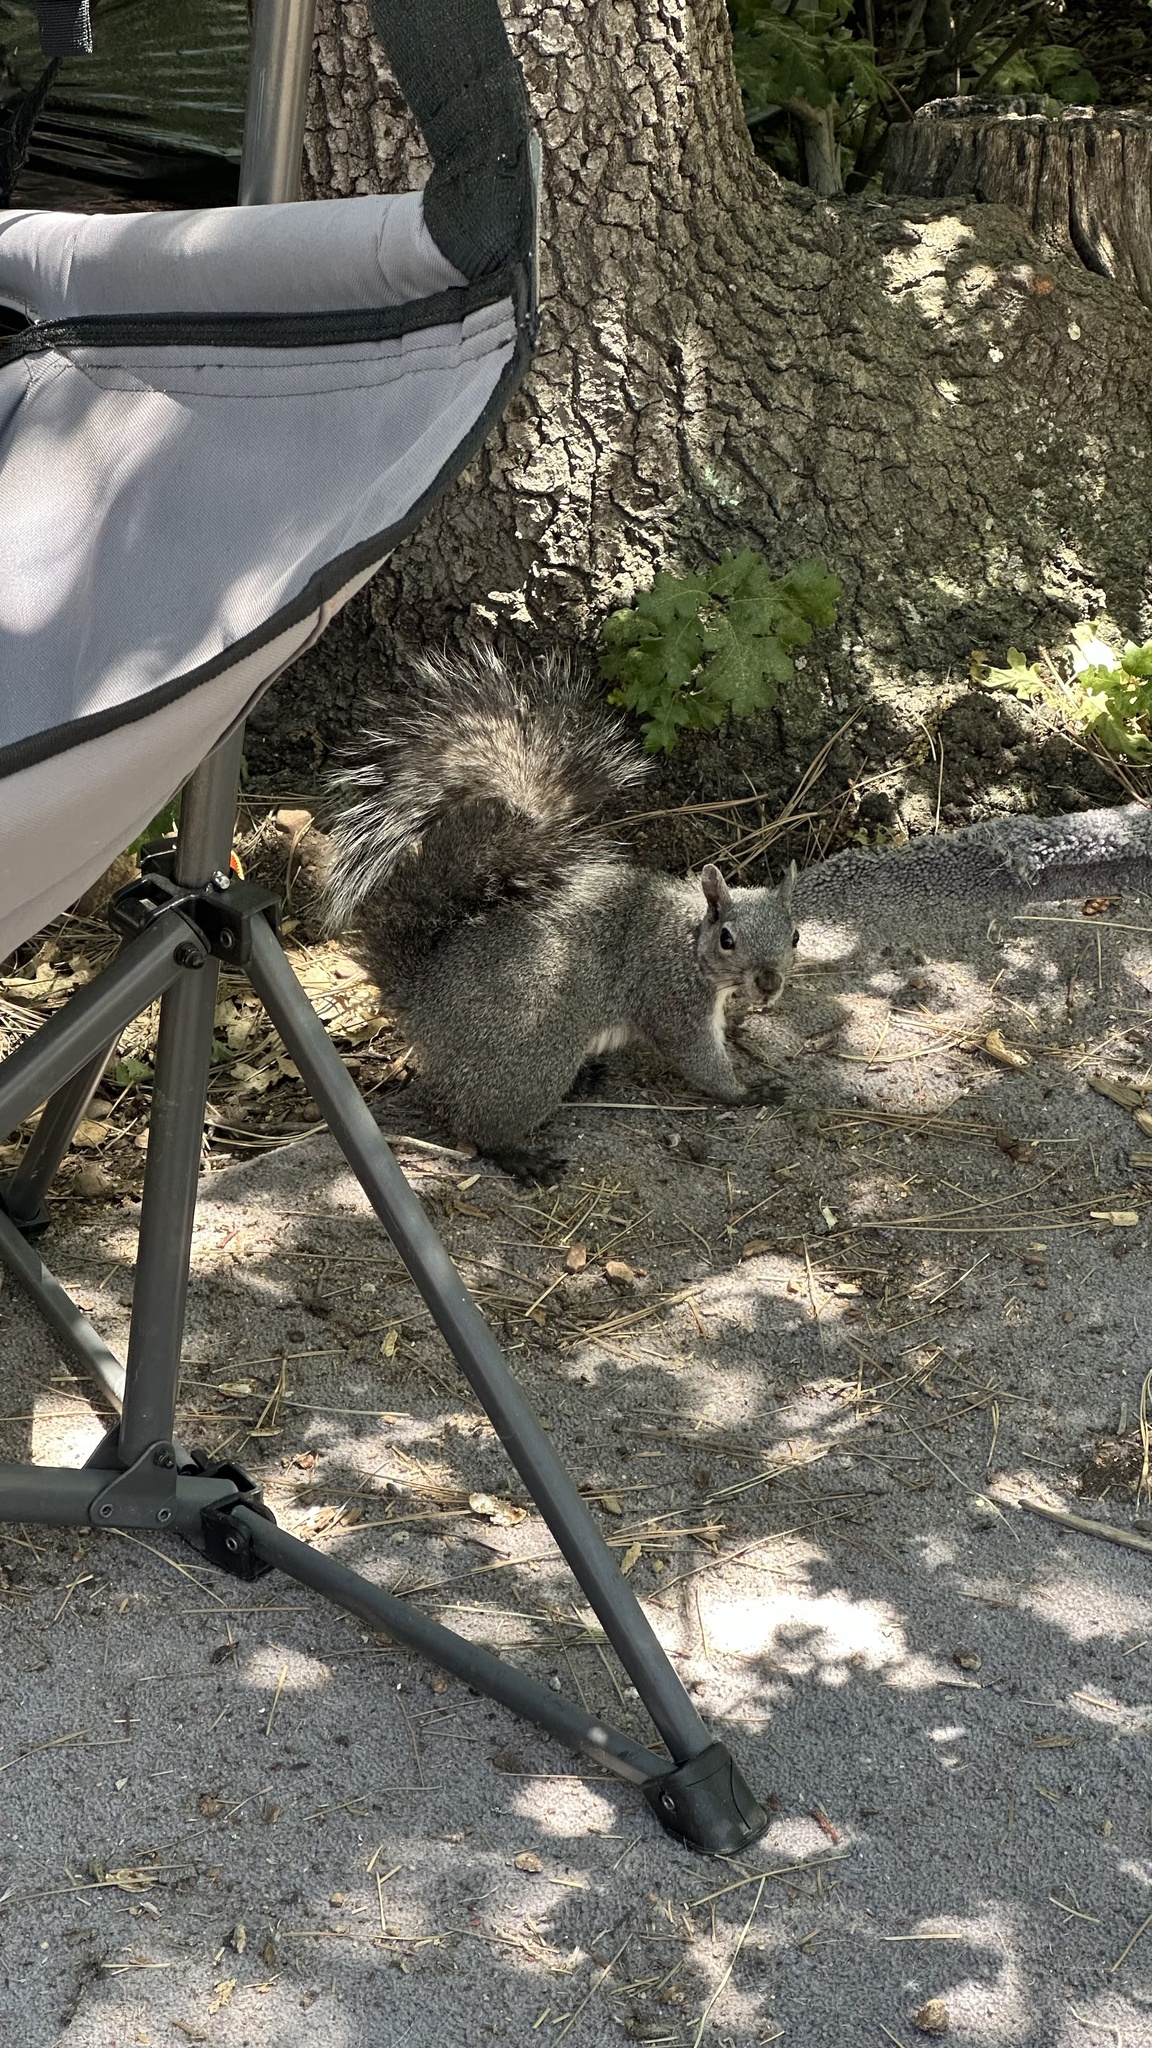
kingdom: Animalia
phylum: Chordata
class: Mammalia
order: Rodentia
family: Sciuridae
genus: Sciurus
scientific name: Sciurus griseus
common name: Western gray squirrel
